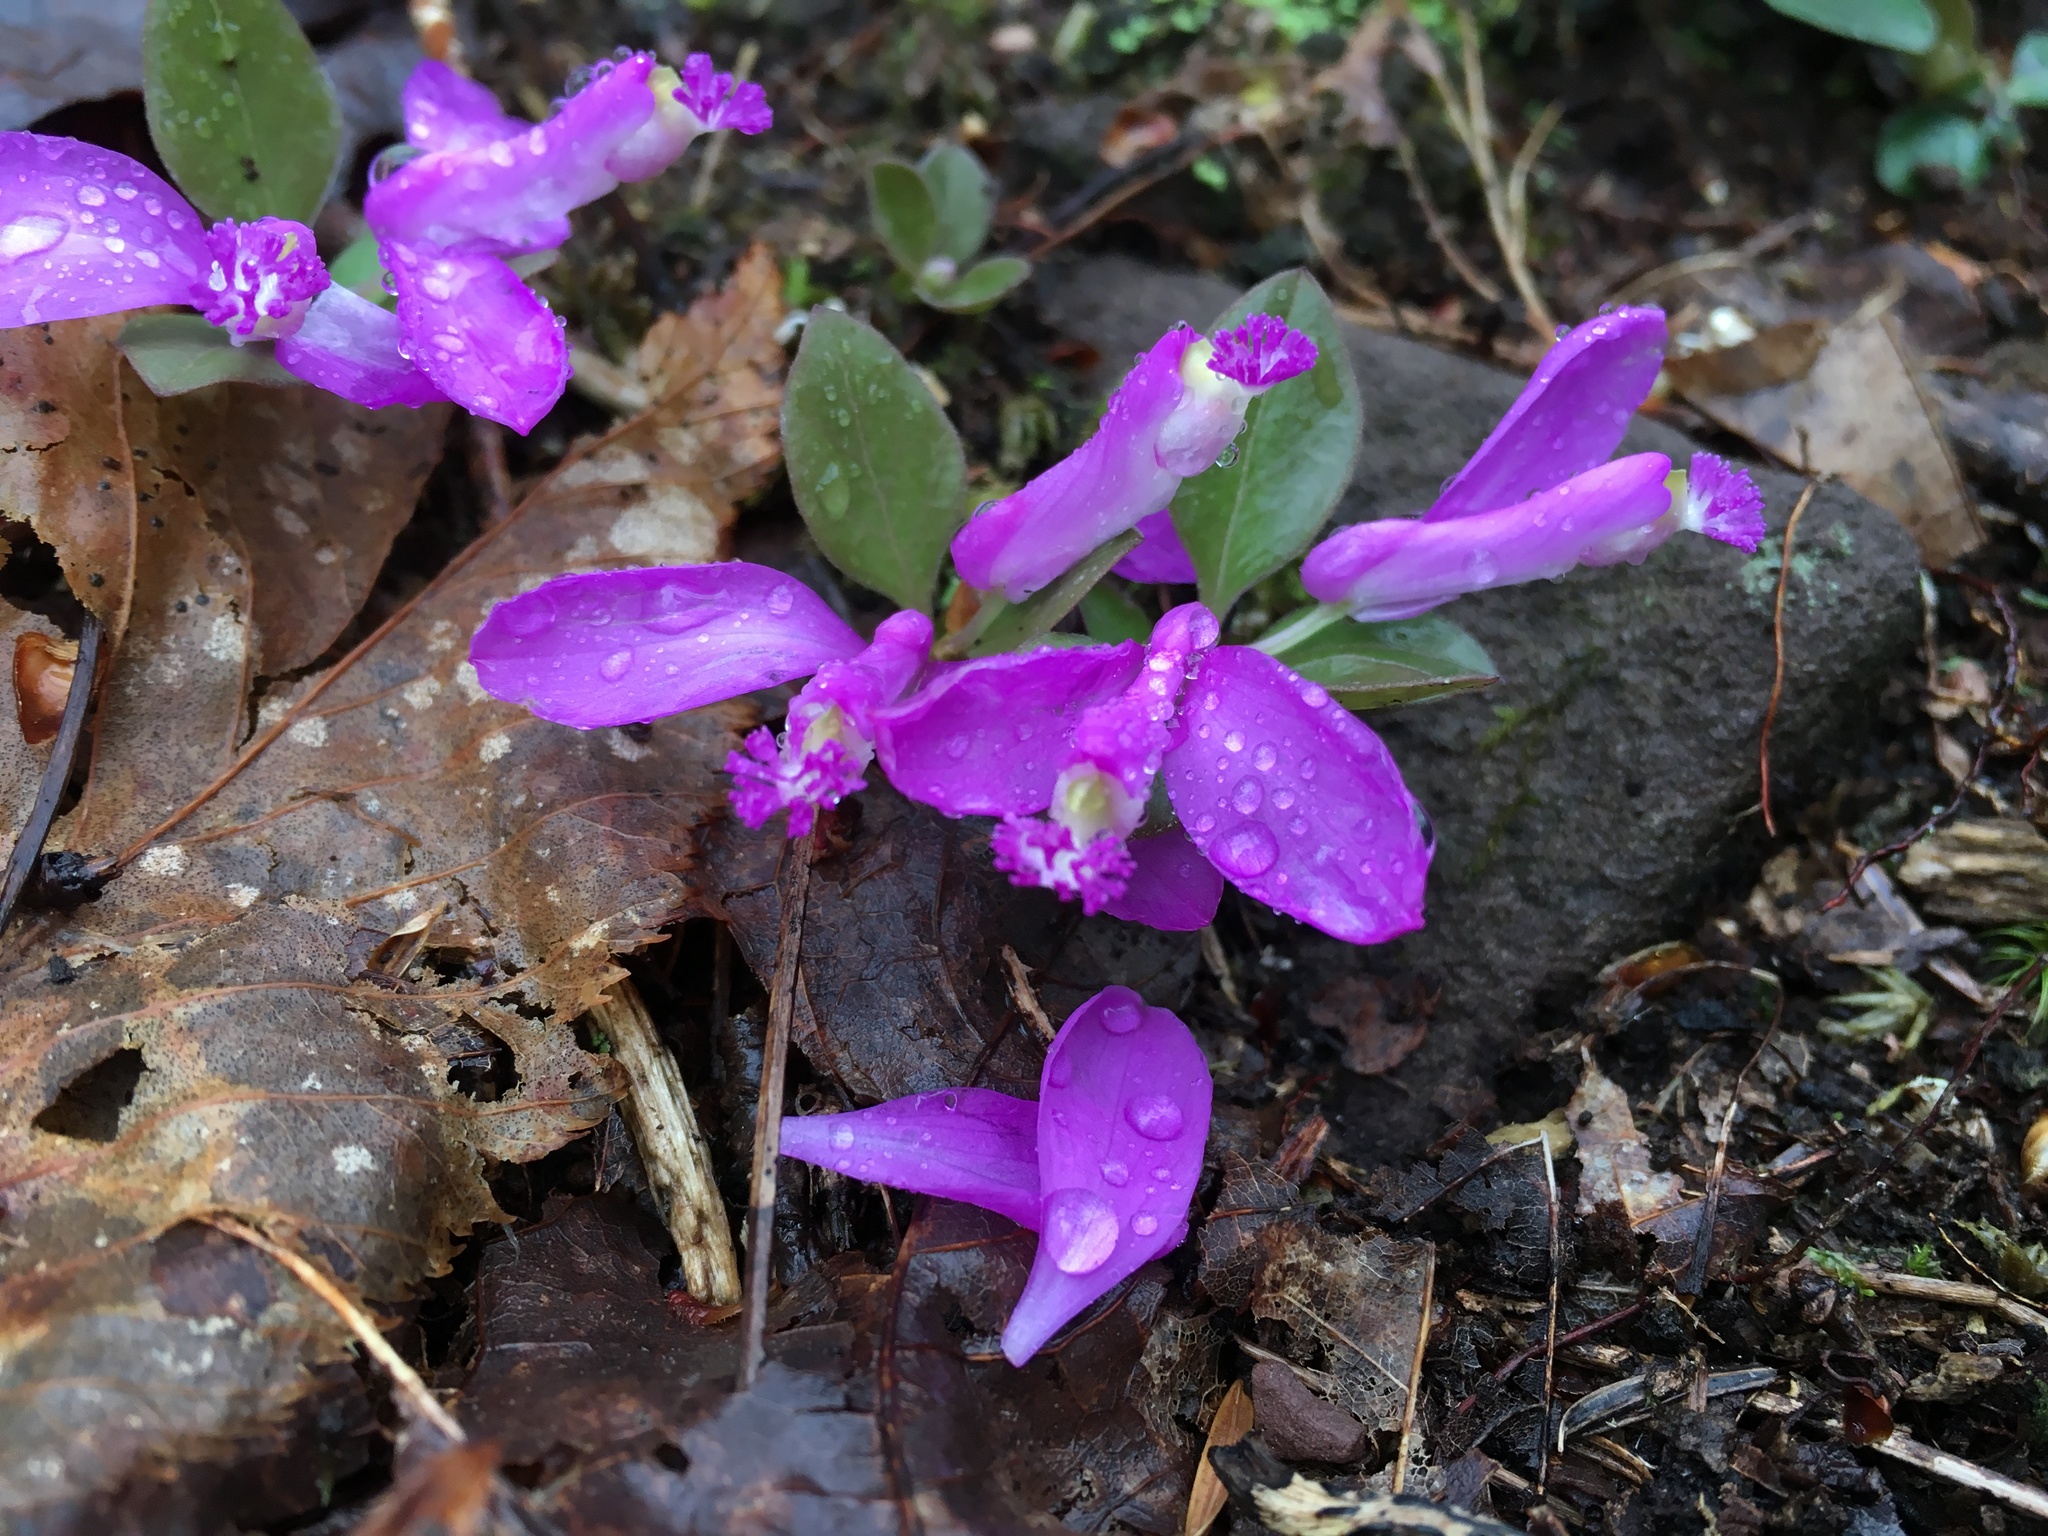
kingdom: Plantae
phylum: Tracheophyta
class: Magnoliopsida
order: Fabales
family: Polygalaceae
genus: Polygaloides
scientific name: Polygaloides paucifolia
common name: Bird-on-the-wing
